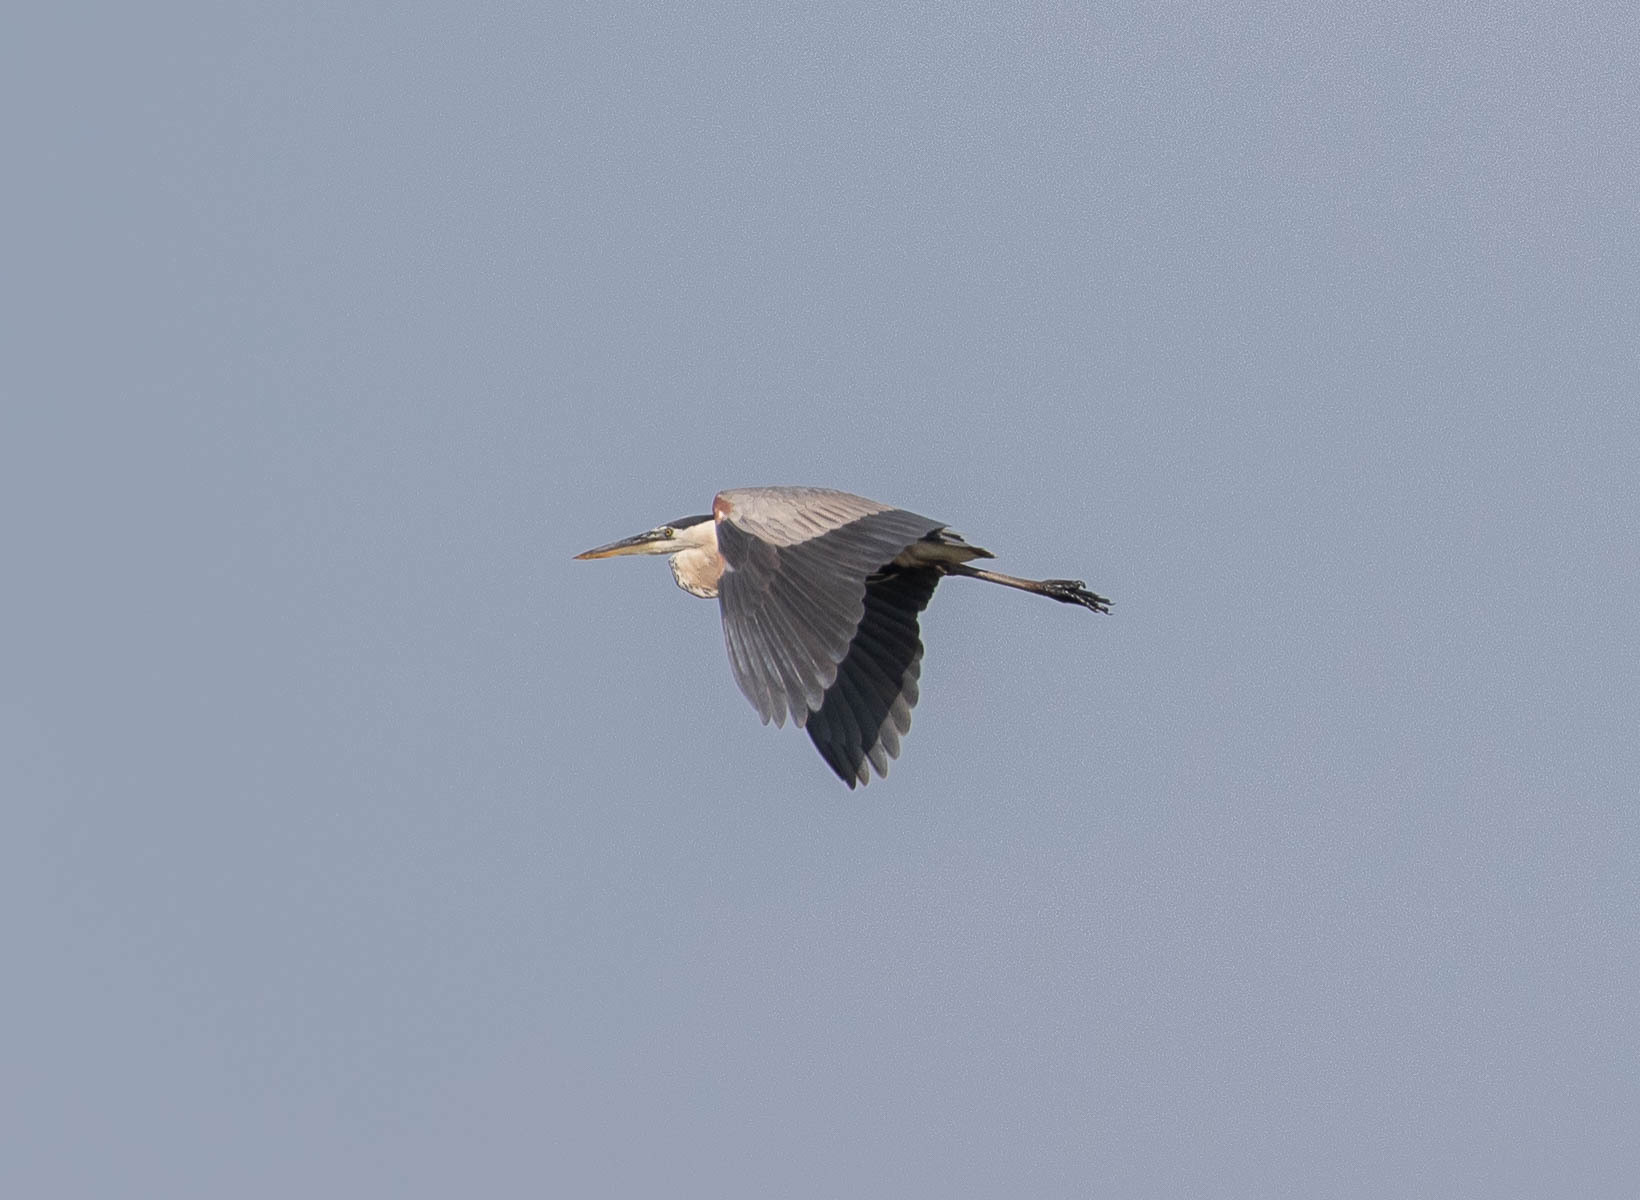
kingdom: Animalia
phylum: Chordata
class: Aves
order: Pelecaniformes
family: Ardeidae
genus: Ardea
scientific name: Ardea herodias
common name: Great blue heron
